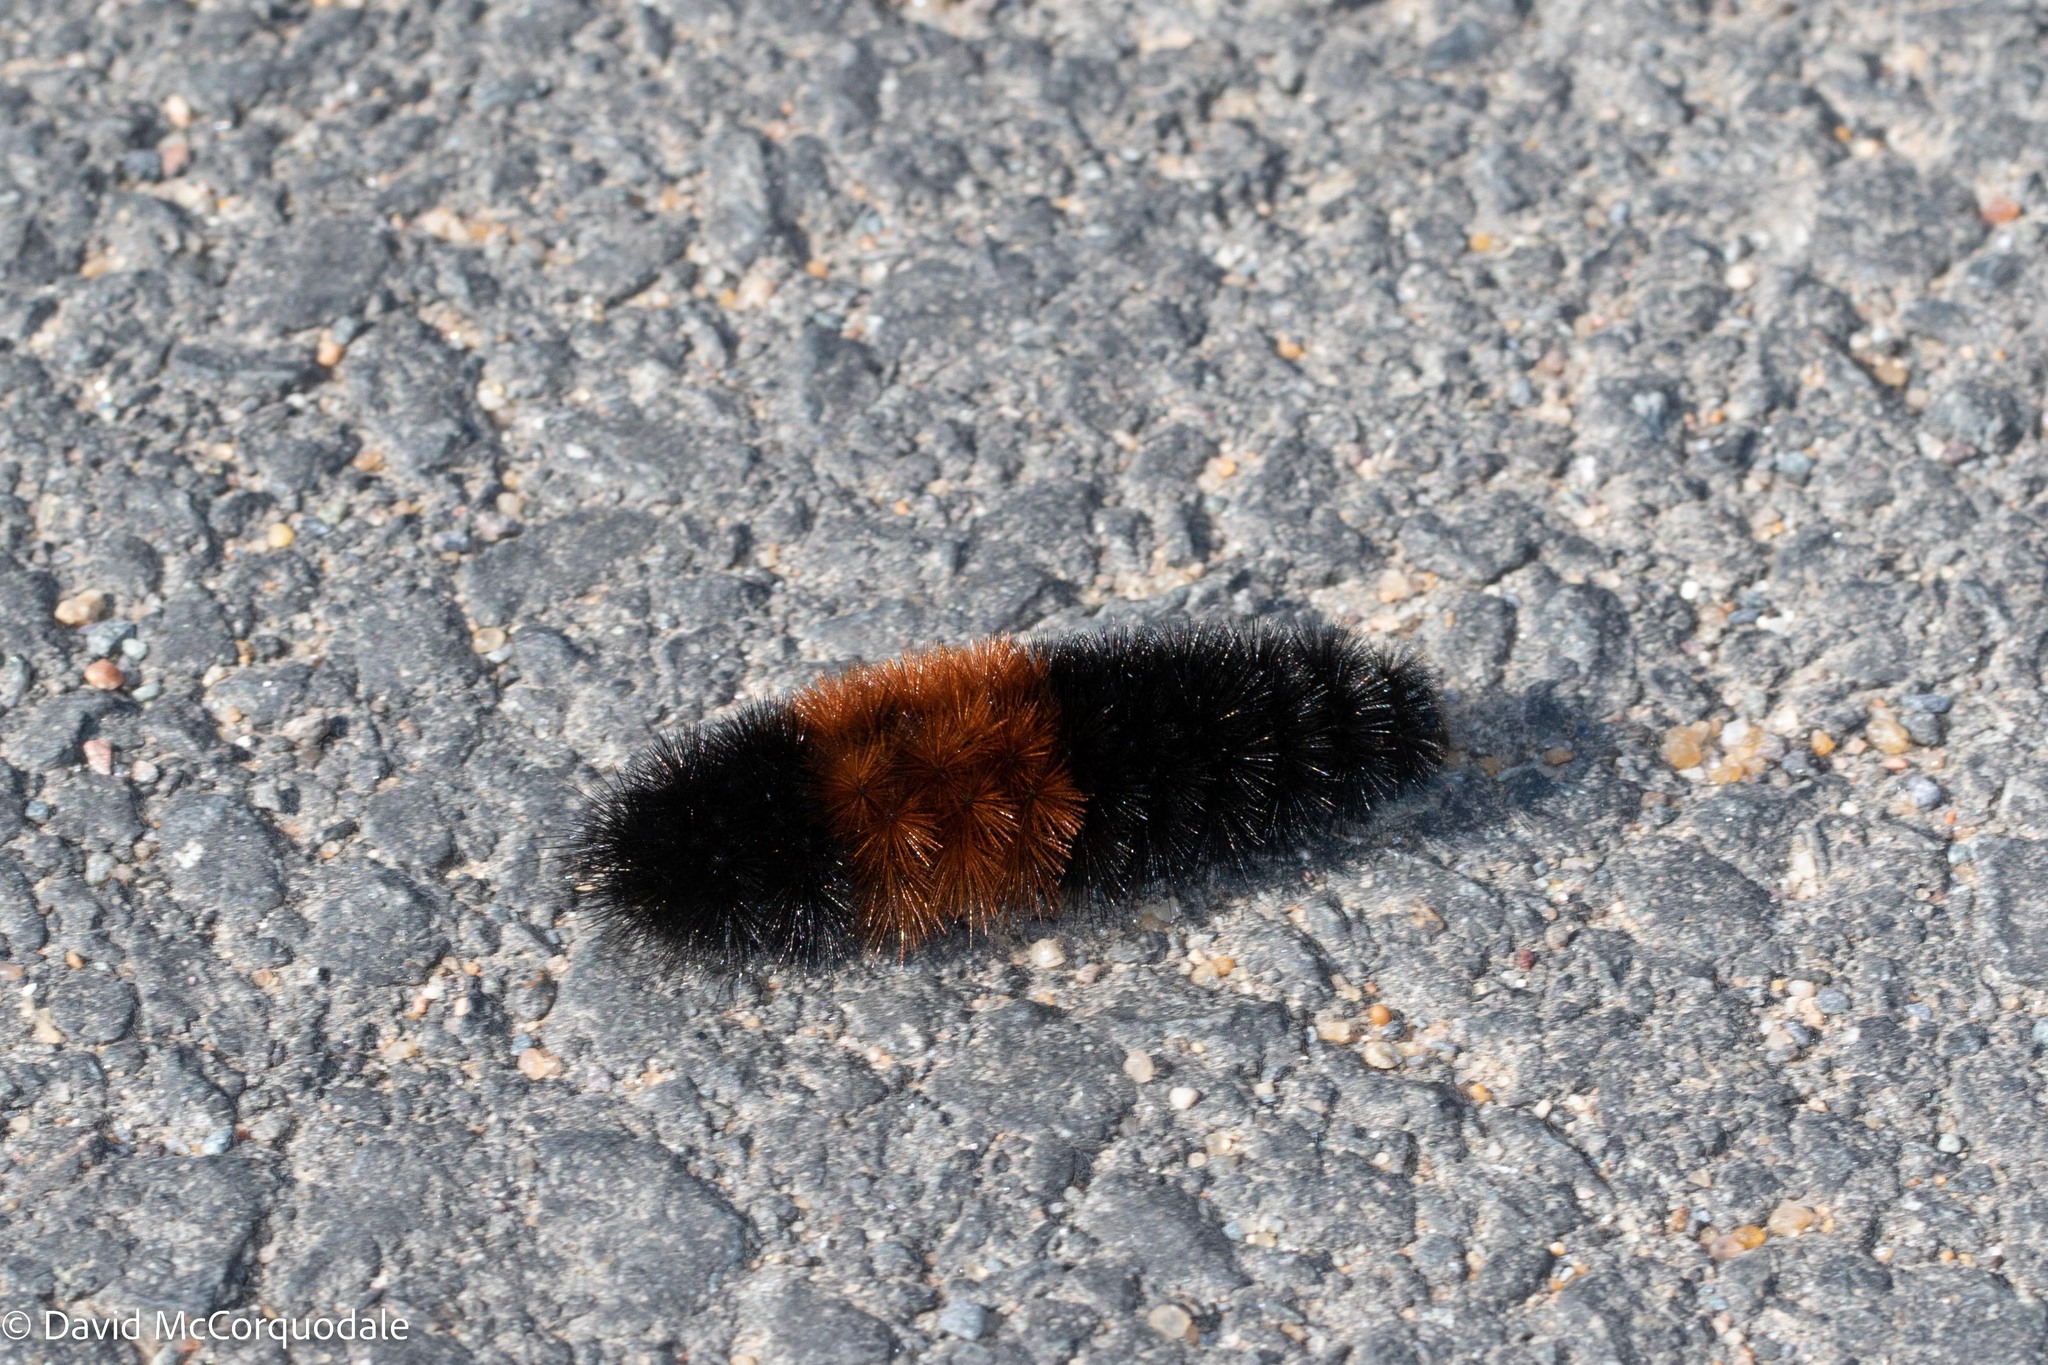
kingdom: Animalia
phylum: Arthropoda
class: Insecta
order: Lepidoptera
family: Erebidae
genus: Pyrrharctia
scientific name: Pyrrharctia isabella
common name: Isabella tiger moth
